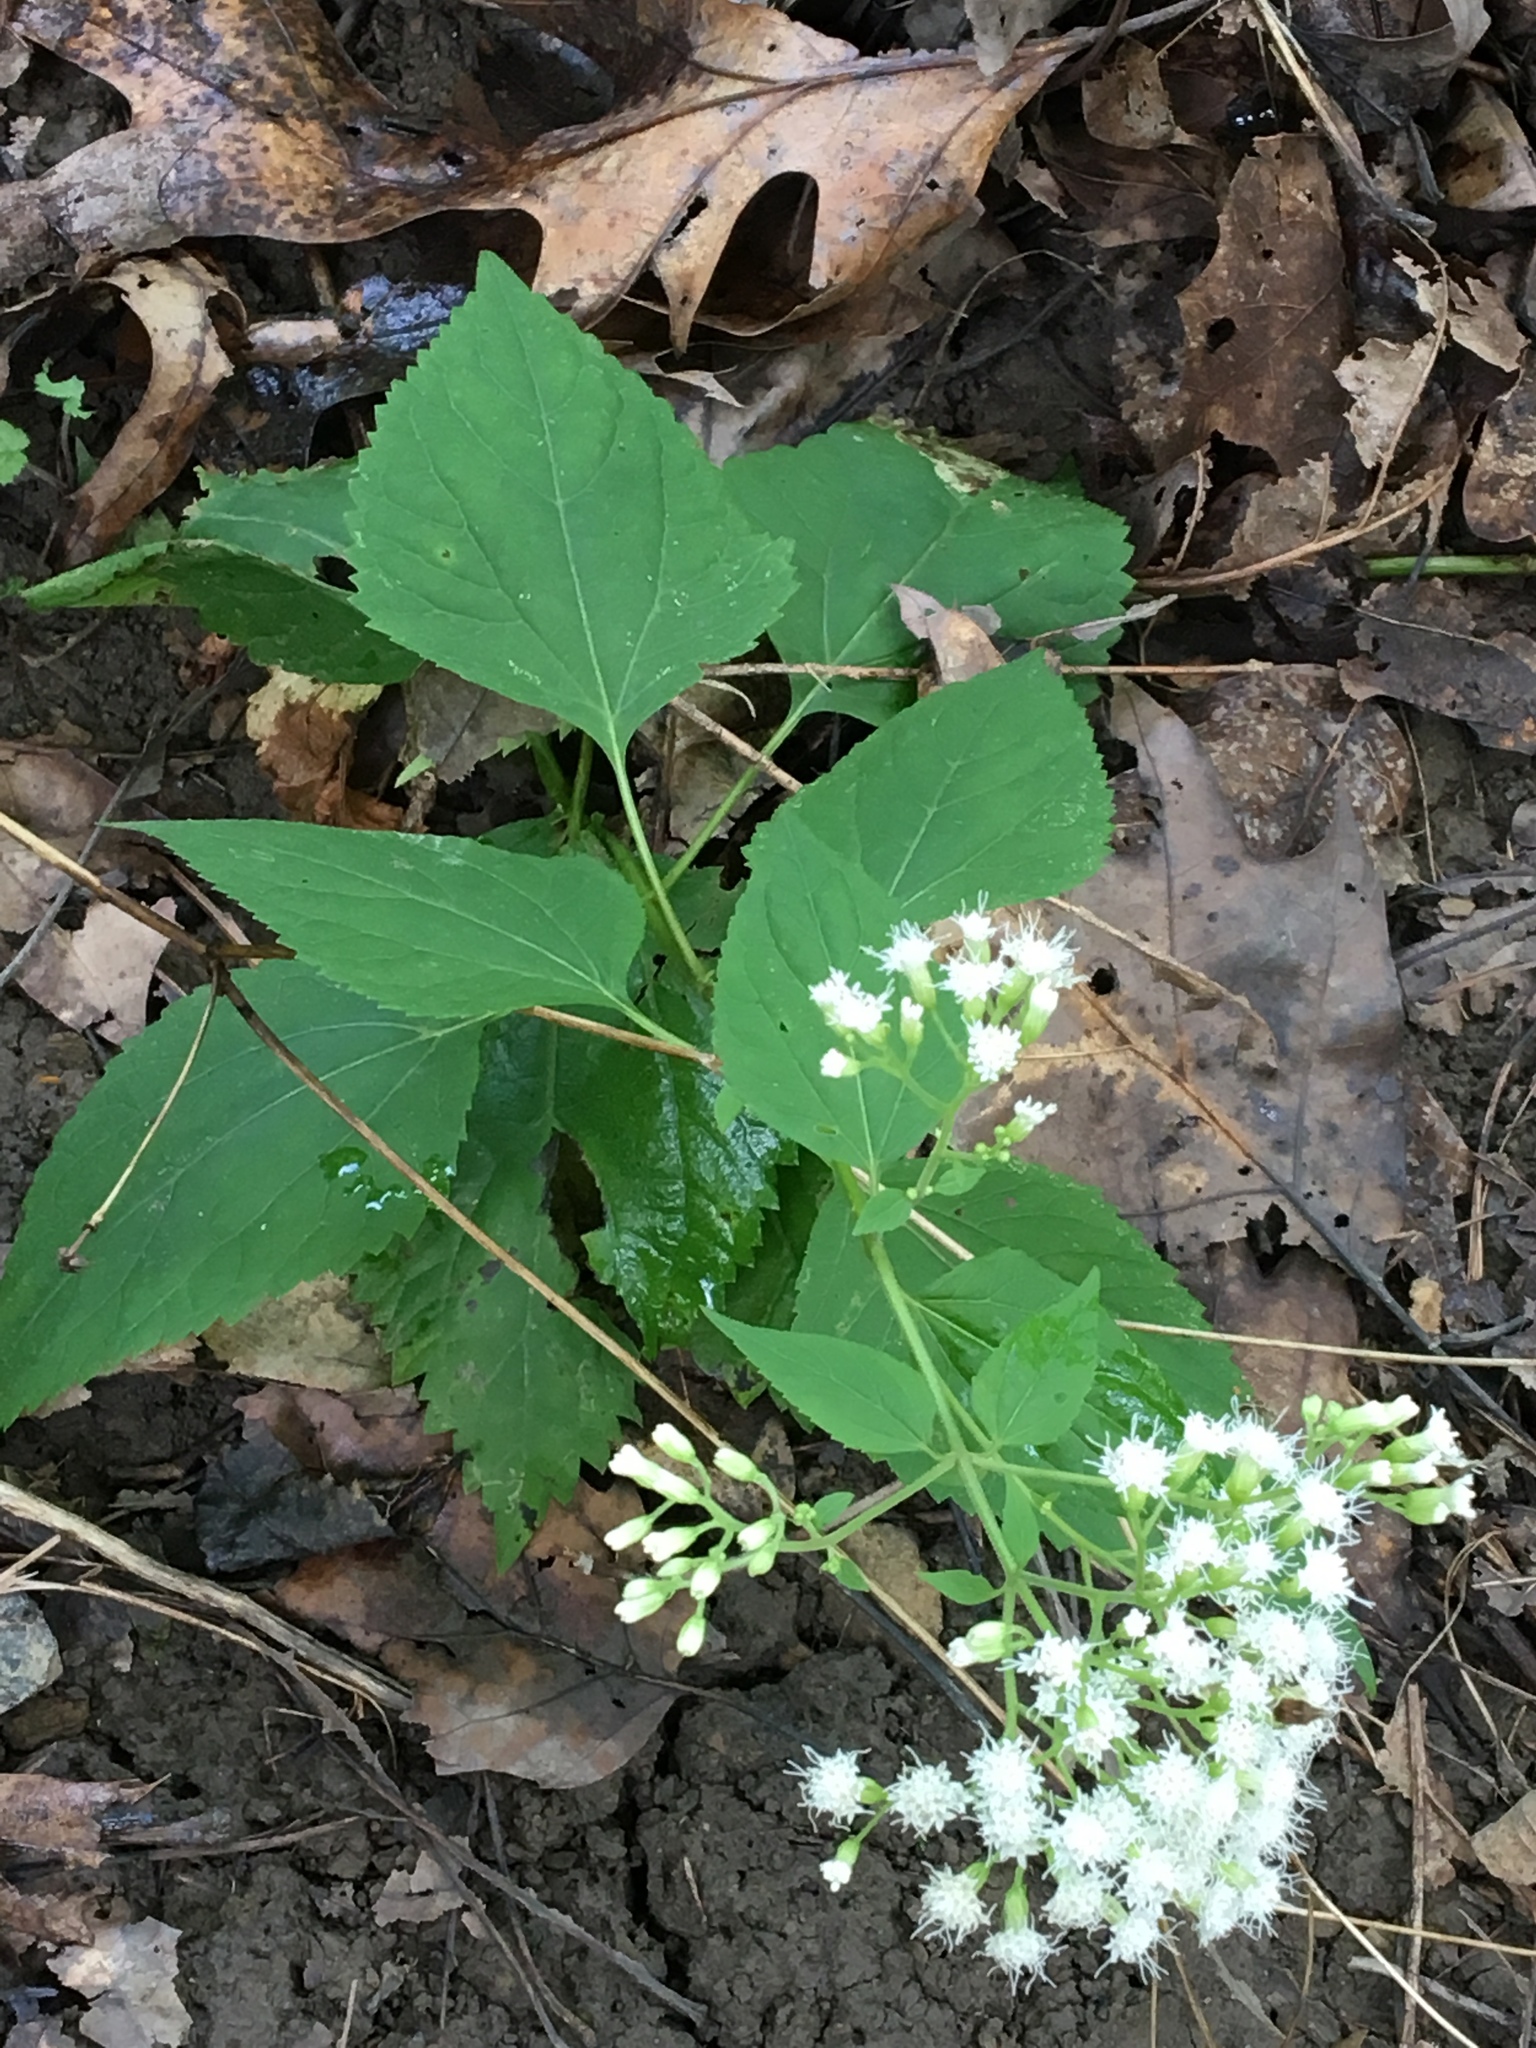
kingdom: Plantae
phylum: Tracheophyta
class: Magnoliopsida
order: Asterales
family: Asteraceae
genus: Ageratina
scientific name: Ageratina altissima
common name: White snakeroot
